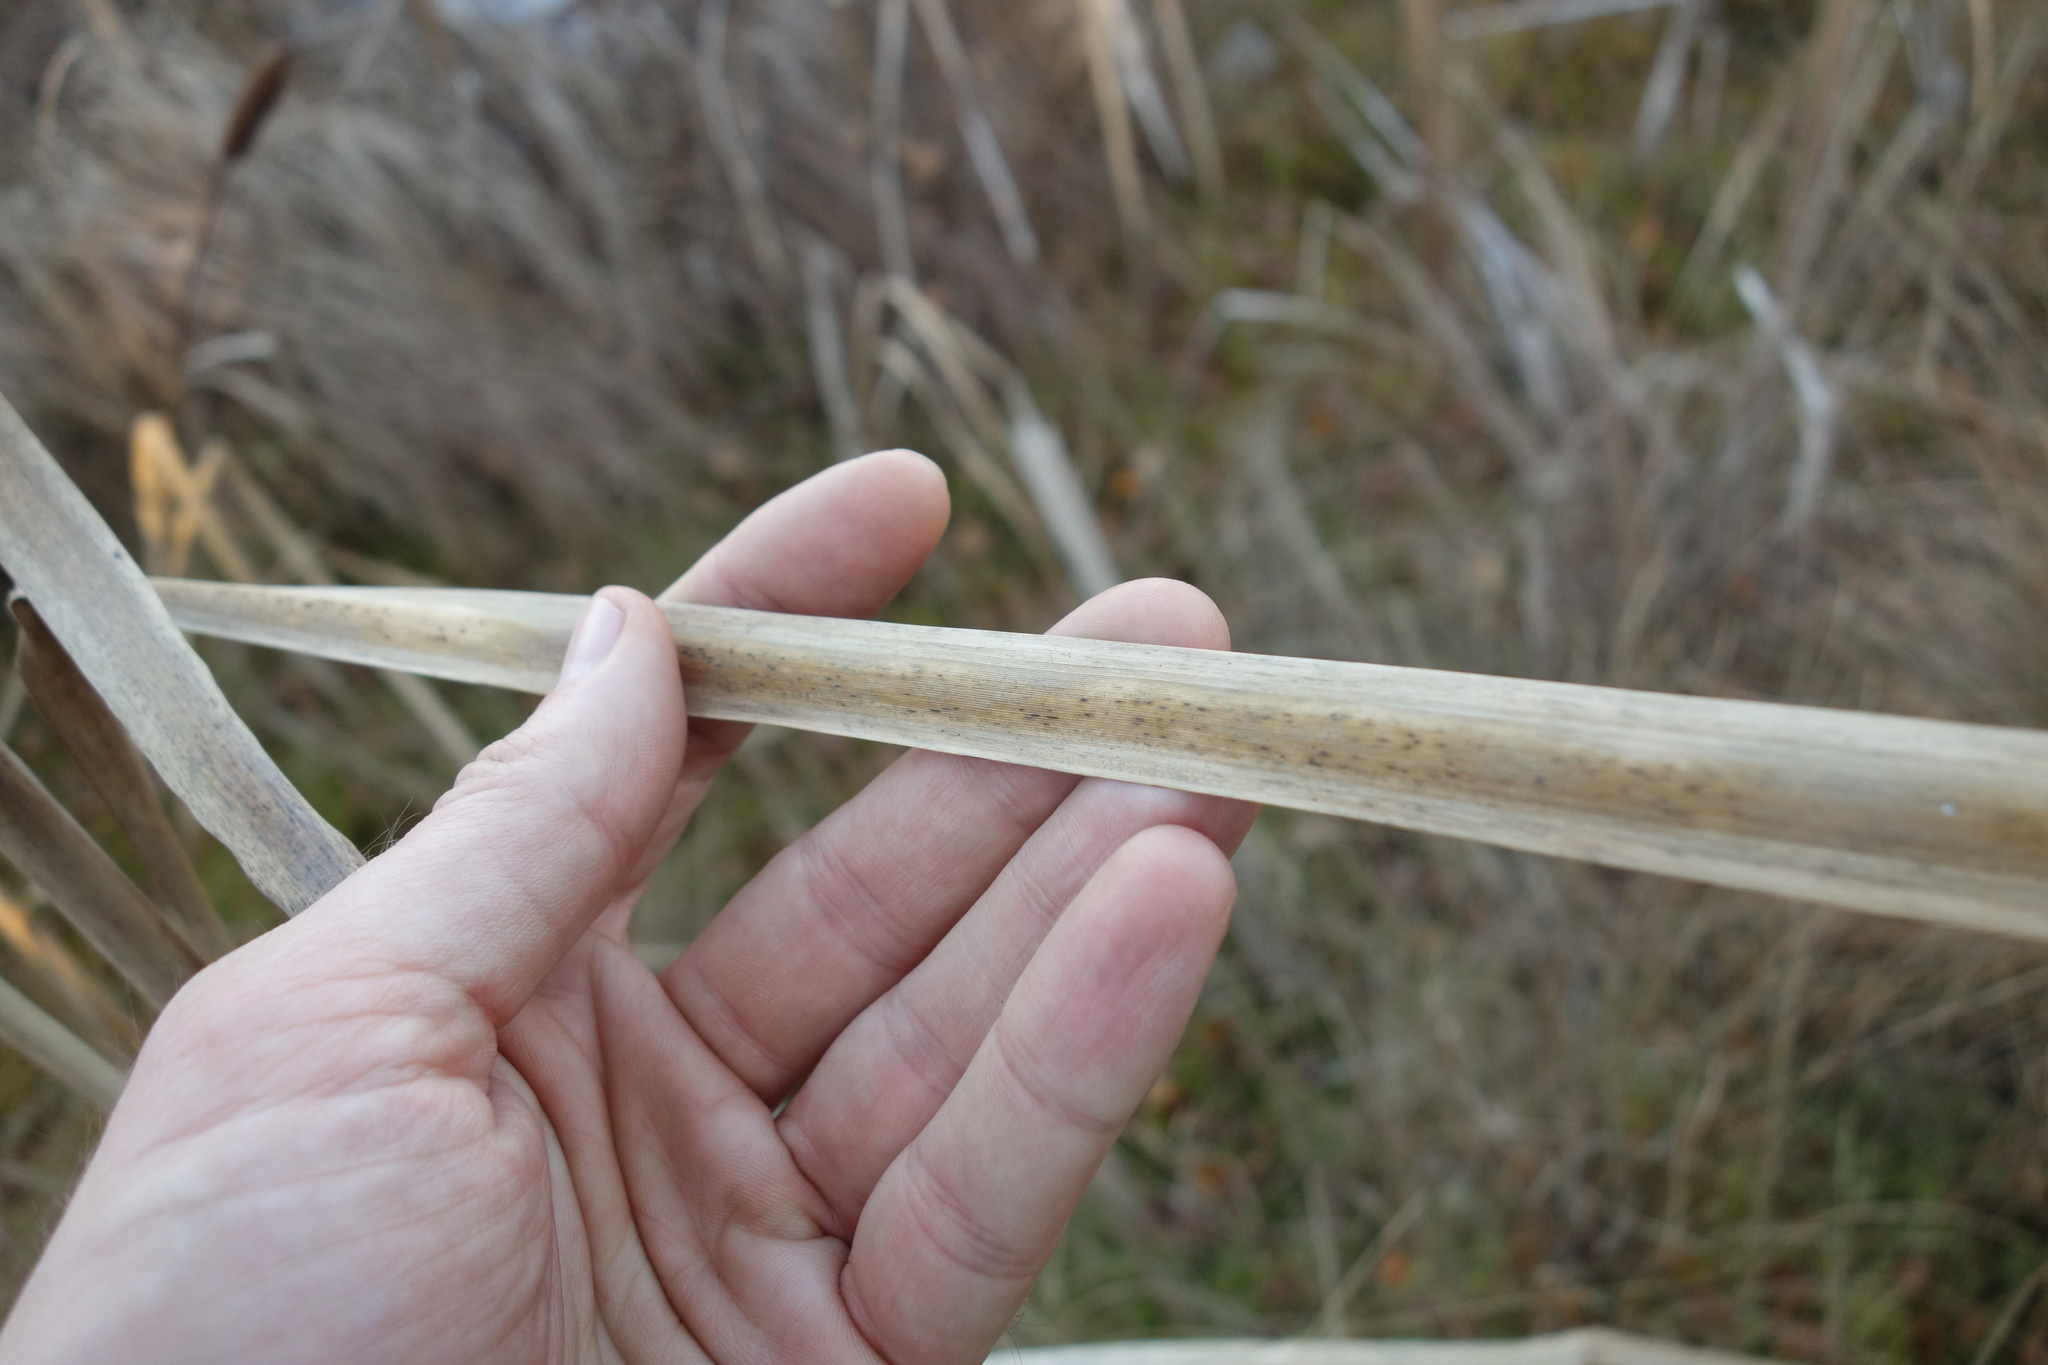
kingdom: Plantae
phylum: Tracheophyta
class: Liliopsida
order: Poales
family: Typhaceae
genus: Typha
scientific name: Typha latifolia
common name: Broadleaf cattail
